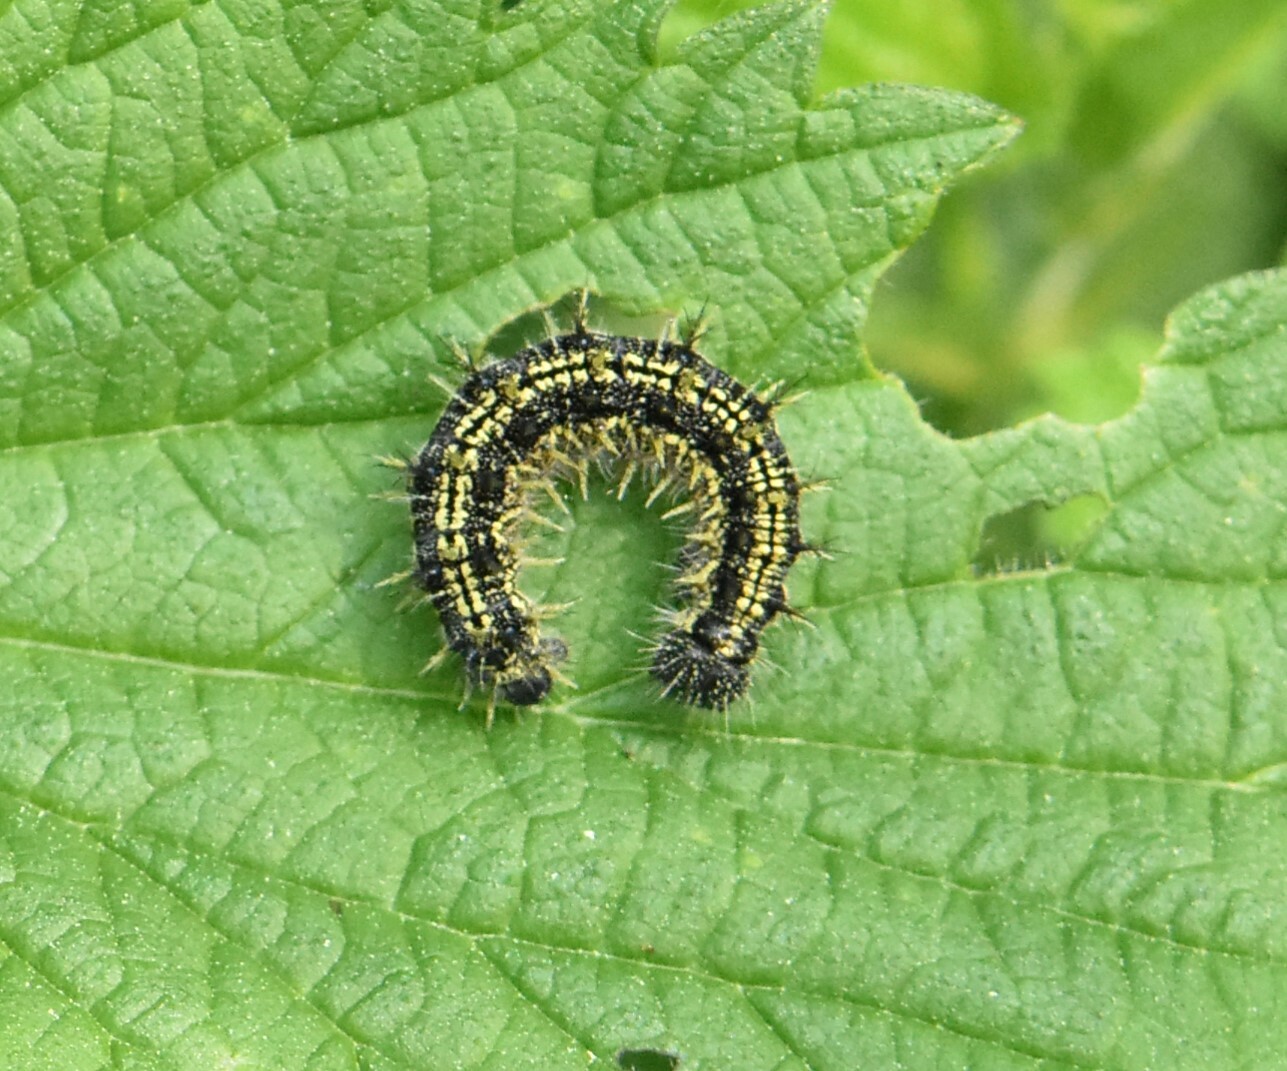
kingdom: Animalia
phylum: Arthropoda
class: Insecta
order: Lepidoptera
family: Nymphalidae
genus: Aglais
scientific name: Aglais urticae
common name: Small tortoiseshell
